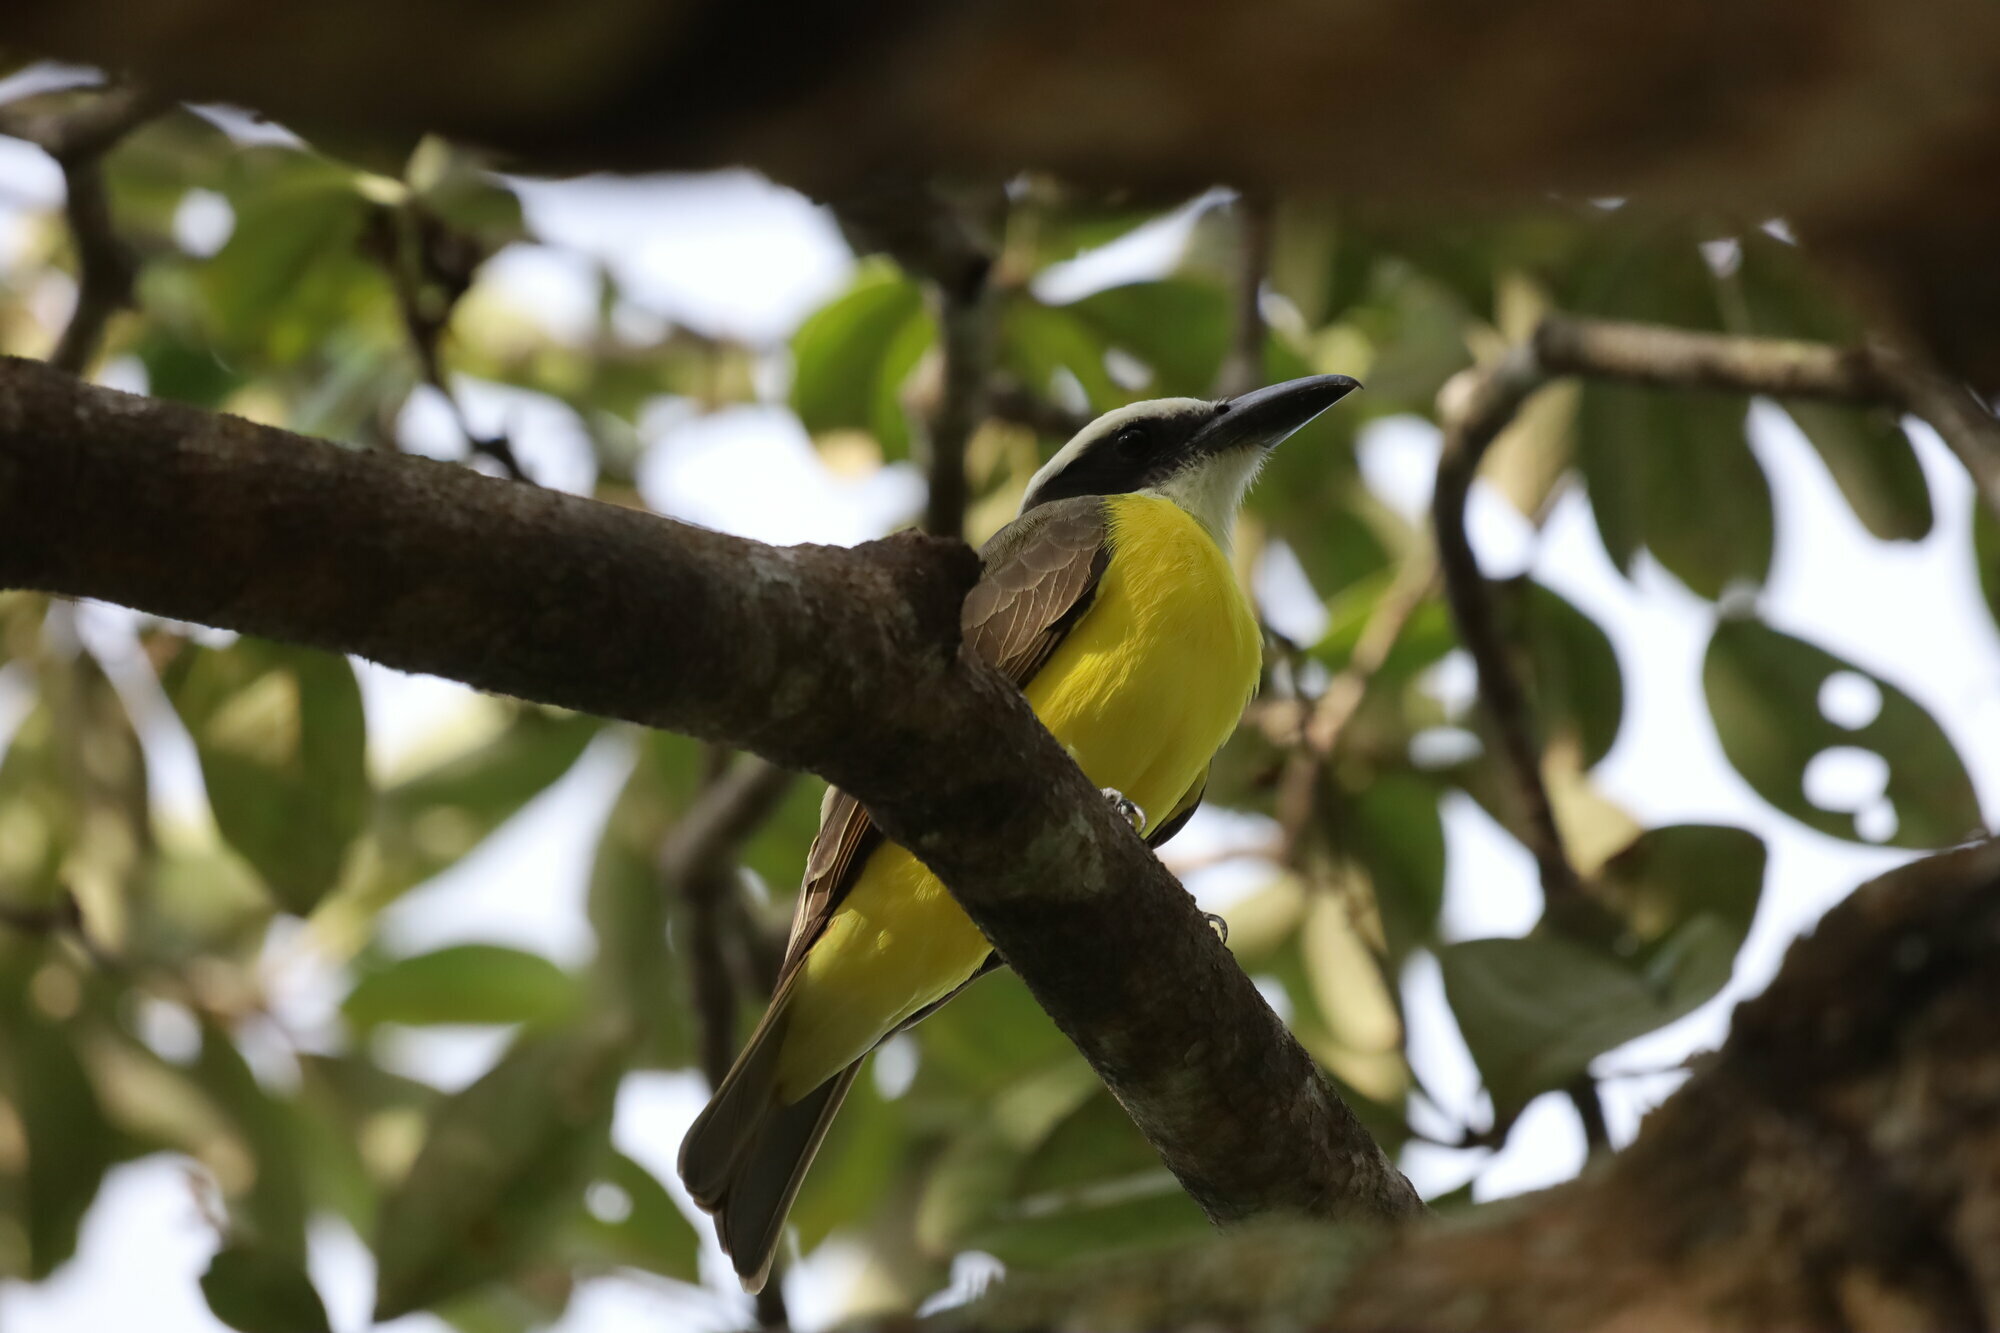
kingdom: Animalia
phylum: Chordata
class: Aves
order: Passeriformes
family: Tyrannidae
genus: Megarynchus
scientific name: Megarynchus pitangua
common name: Boat-billed flycatcher
